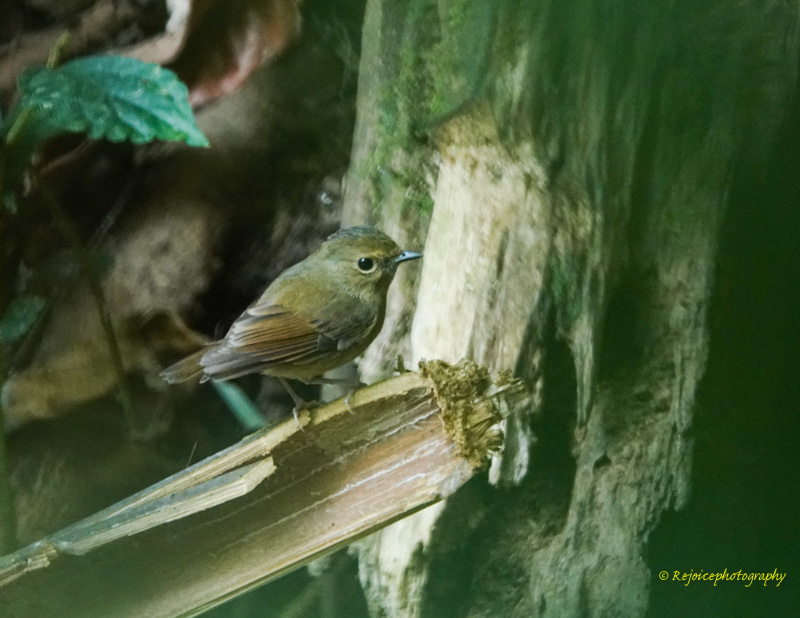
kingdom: Animalia
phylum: Chordata
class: Aves
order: Passeriformes
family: Muscicapidae
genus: Ficedula
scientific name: Ficedula hyperythra
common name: Snowy-browed flycatcher
